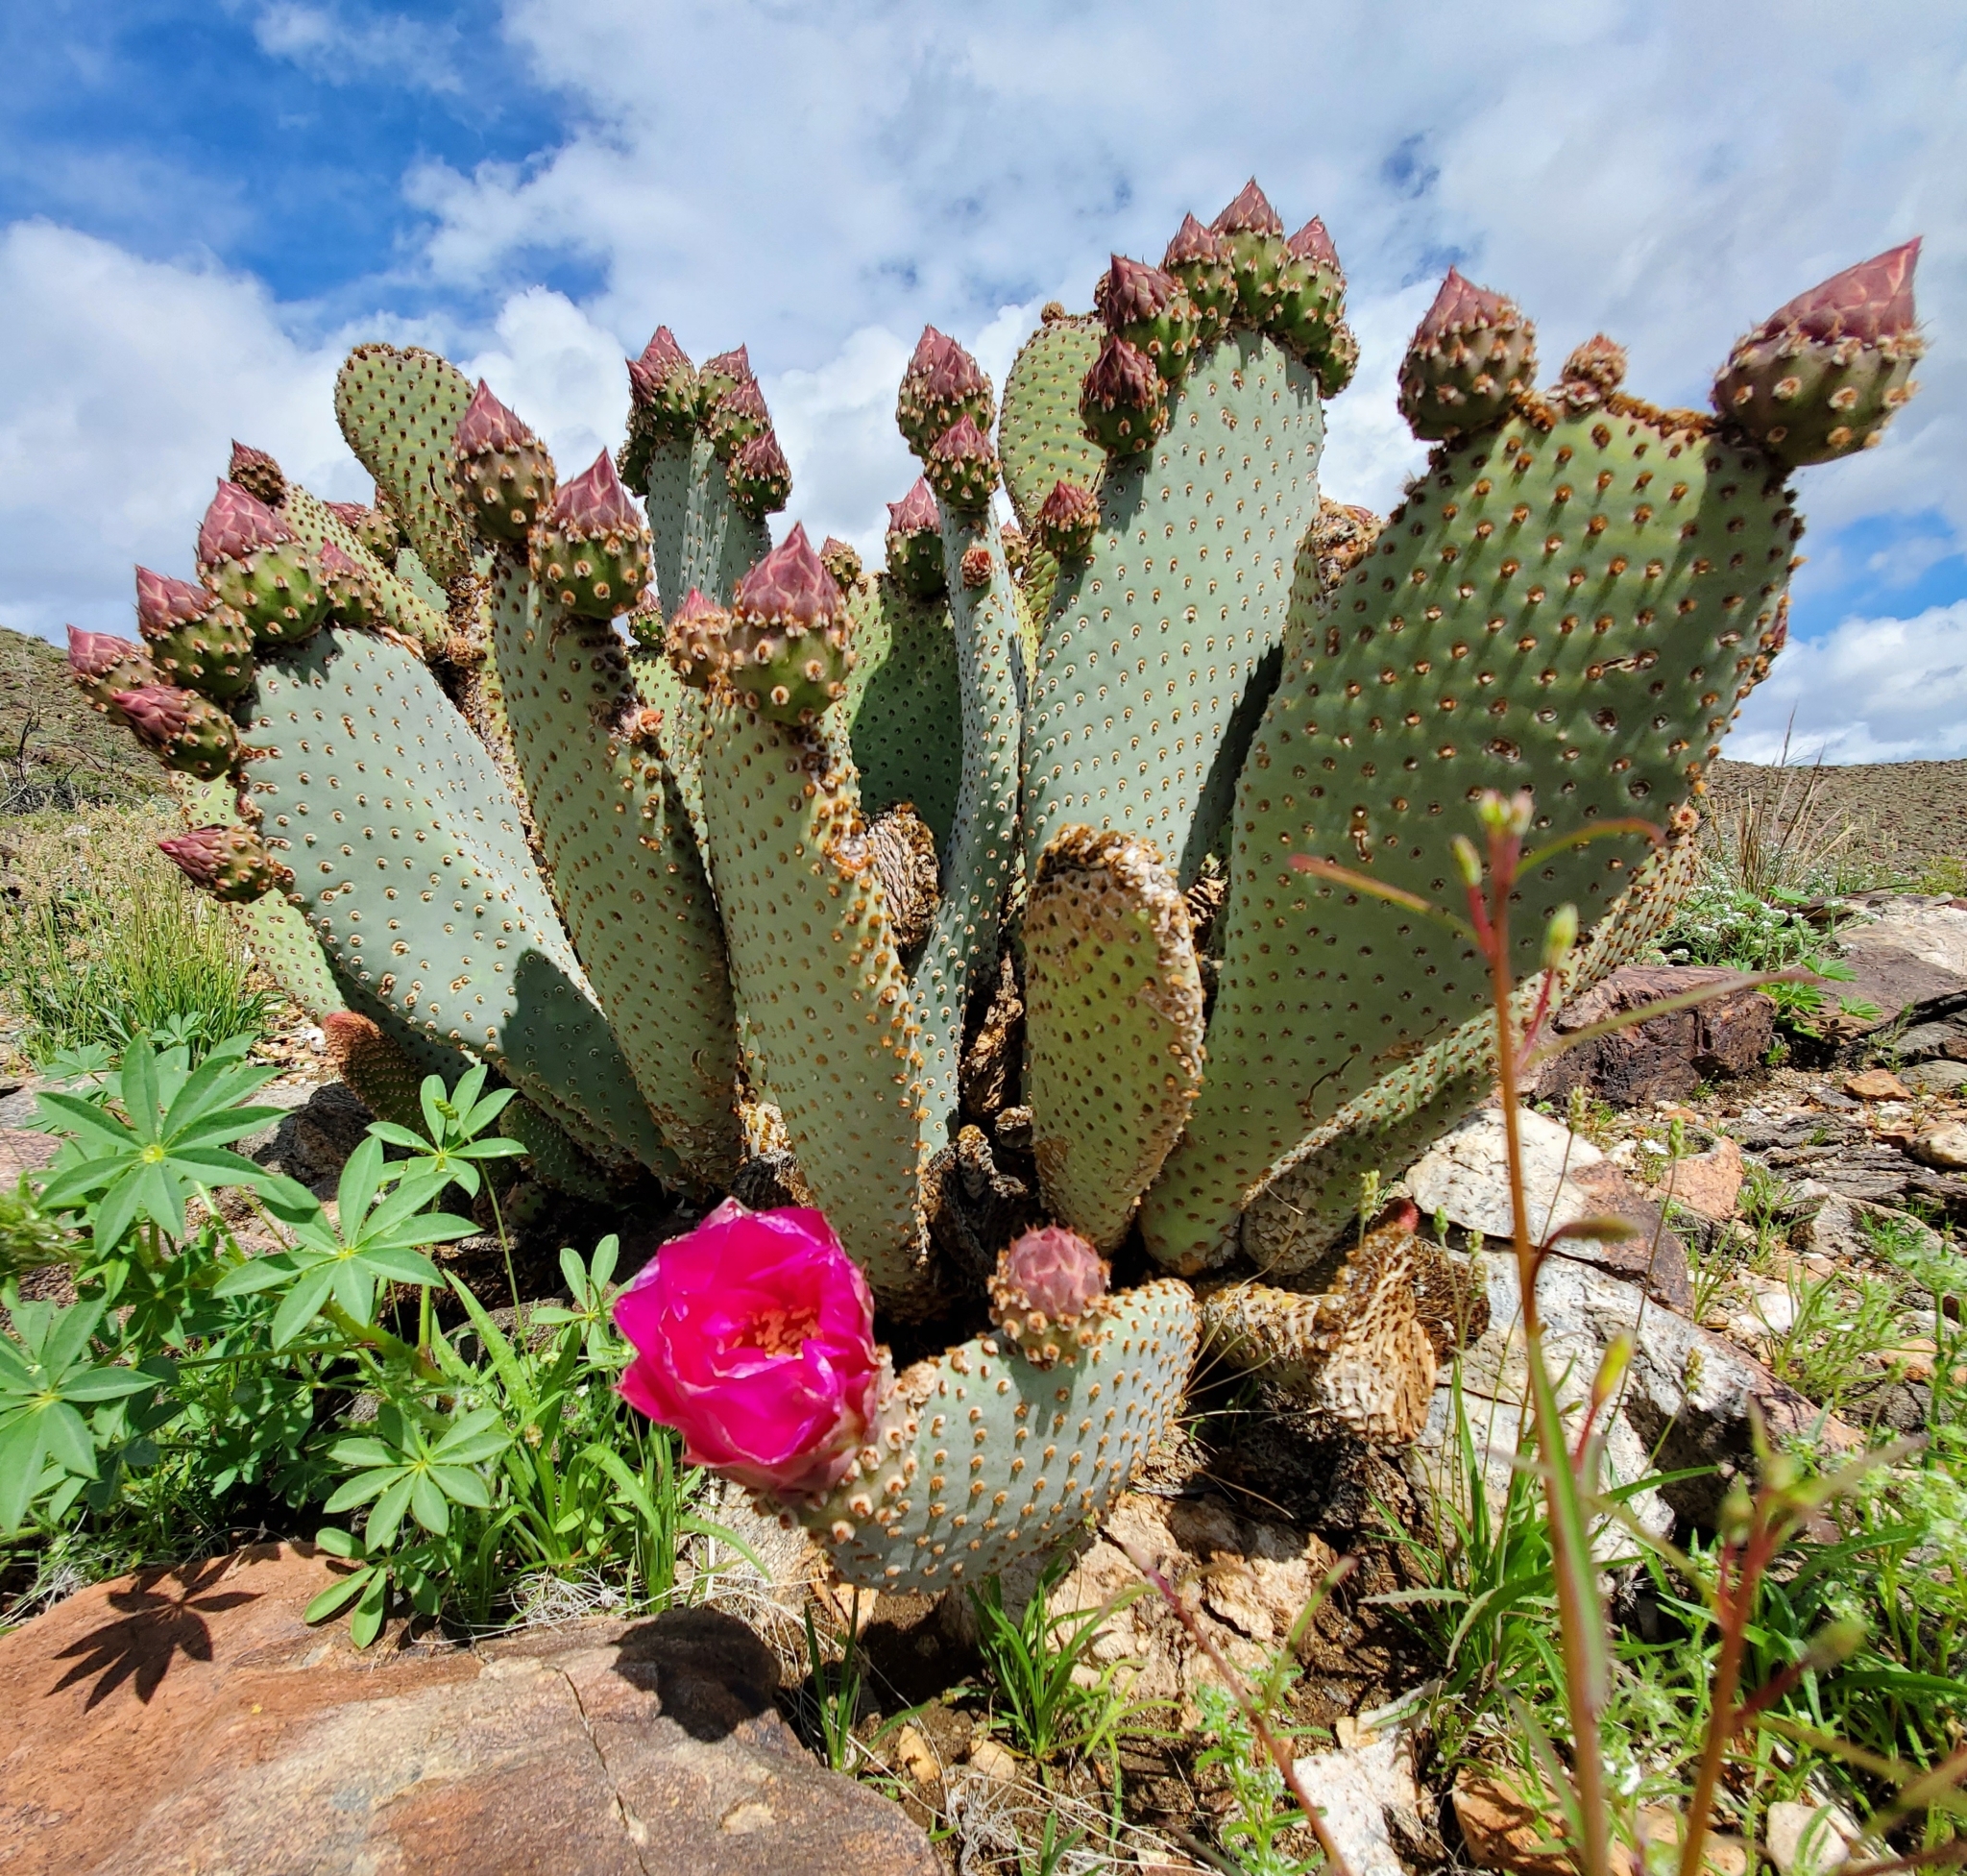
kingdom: Plantae
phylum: Tracheophyta
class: Magnoliopsida
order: Caryophyllales
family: Cactaceae
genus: Opuntia
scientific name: Opuntia basilaris
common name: Beavertail prickly-pear
